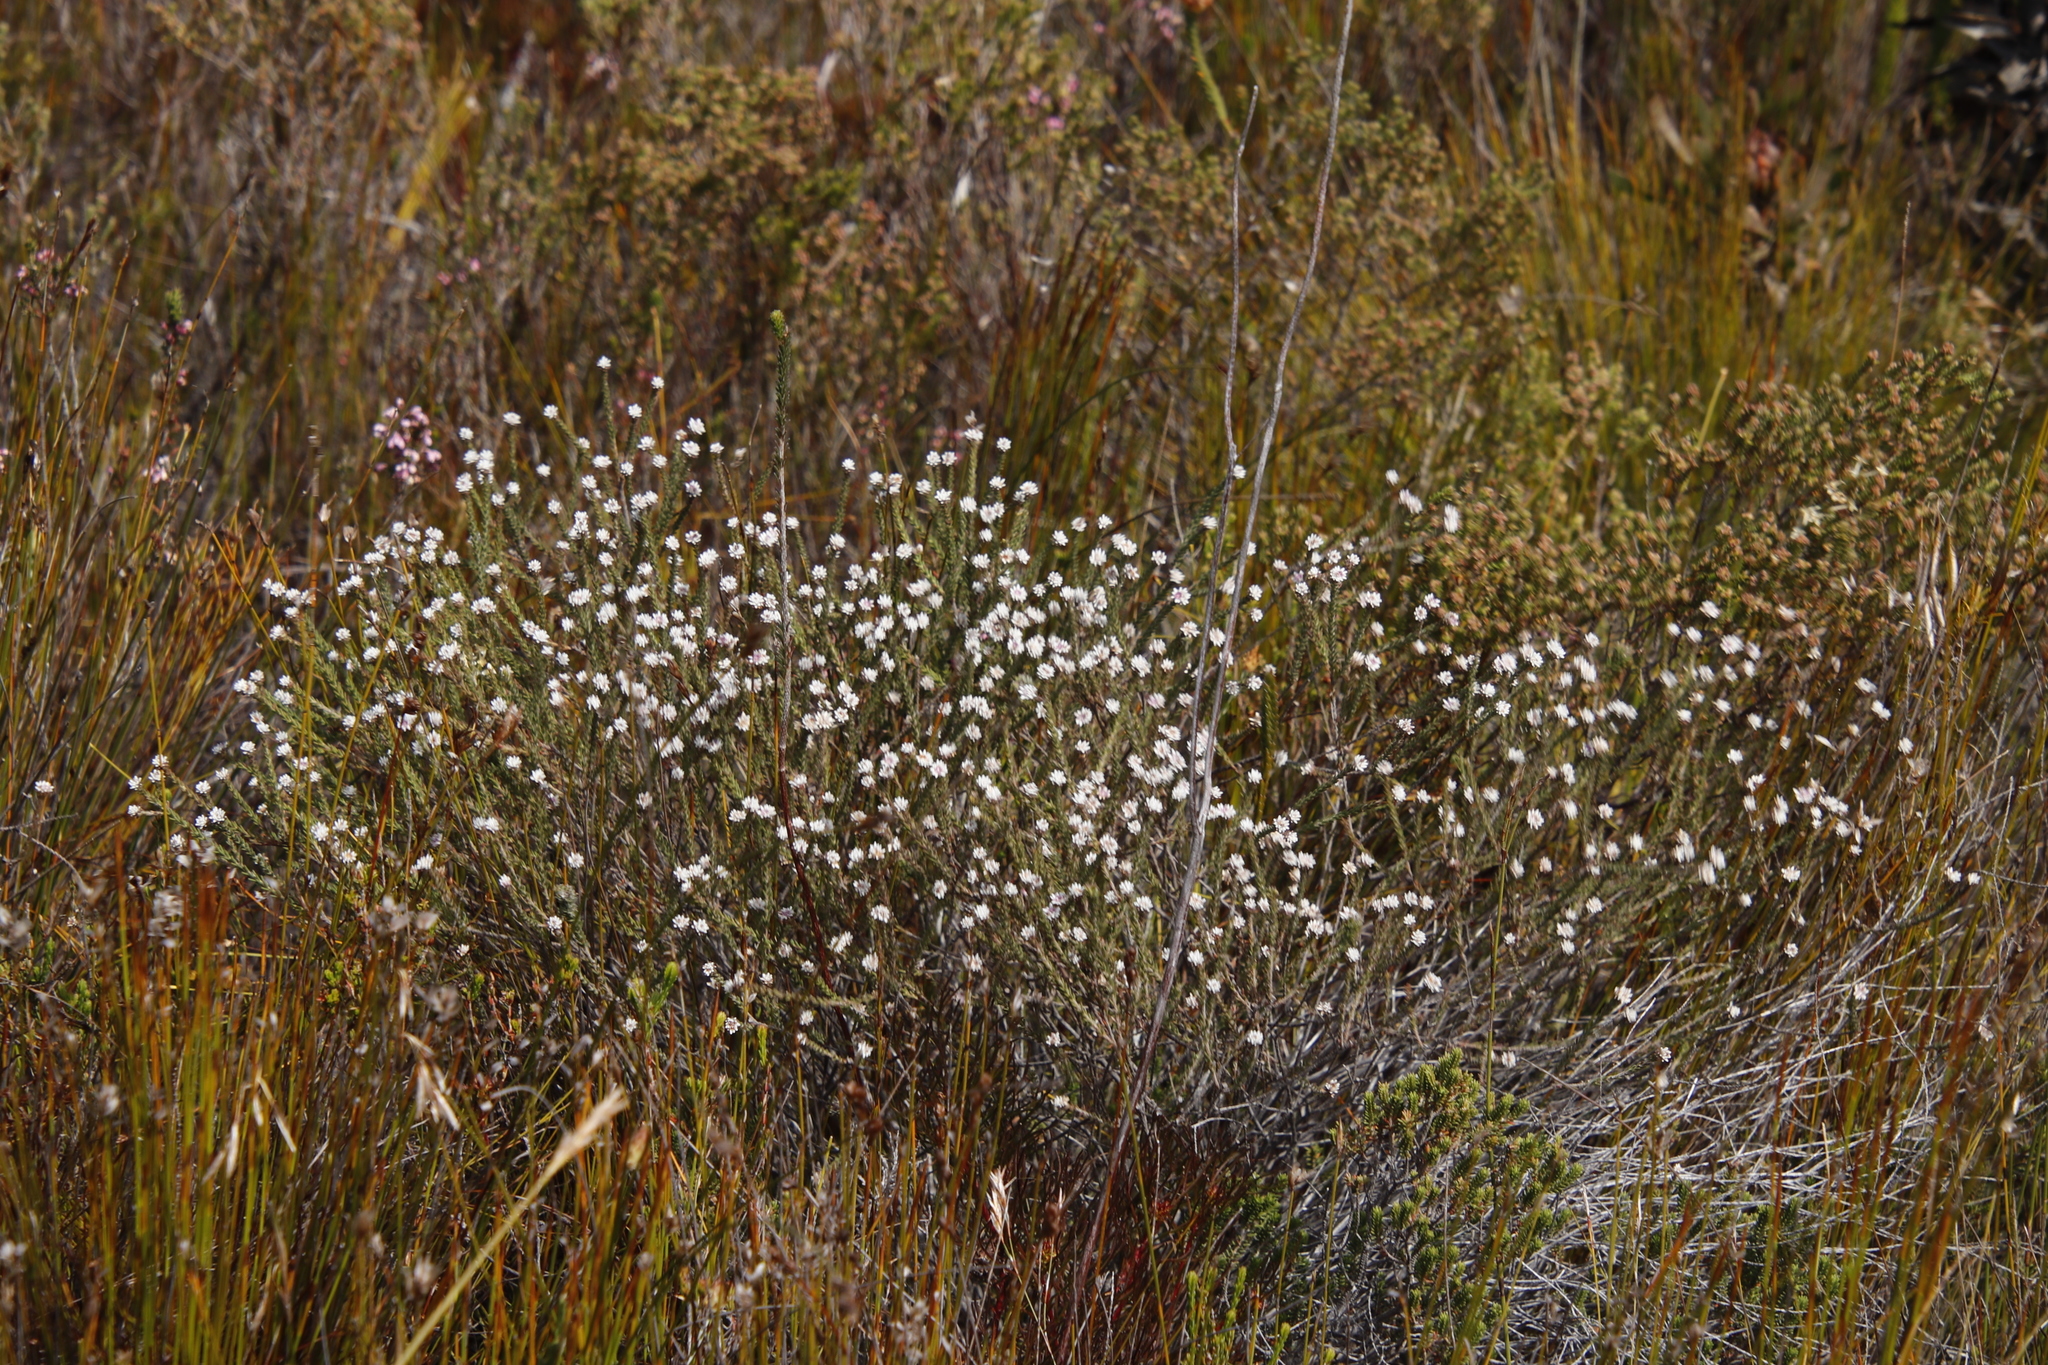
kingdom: Plantae
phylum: Tracheophyta
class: Magnoliopsida
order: Bruniales
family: Bruniaceae
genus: Staavia
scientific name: Staavia radiata
